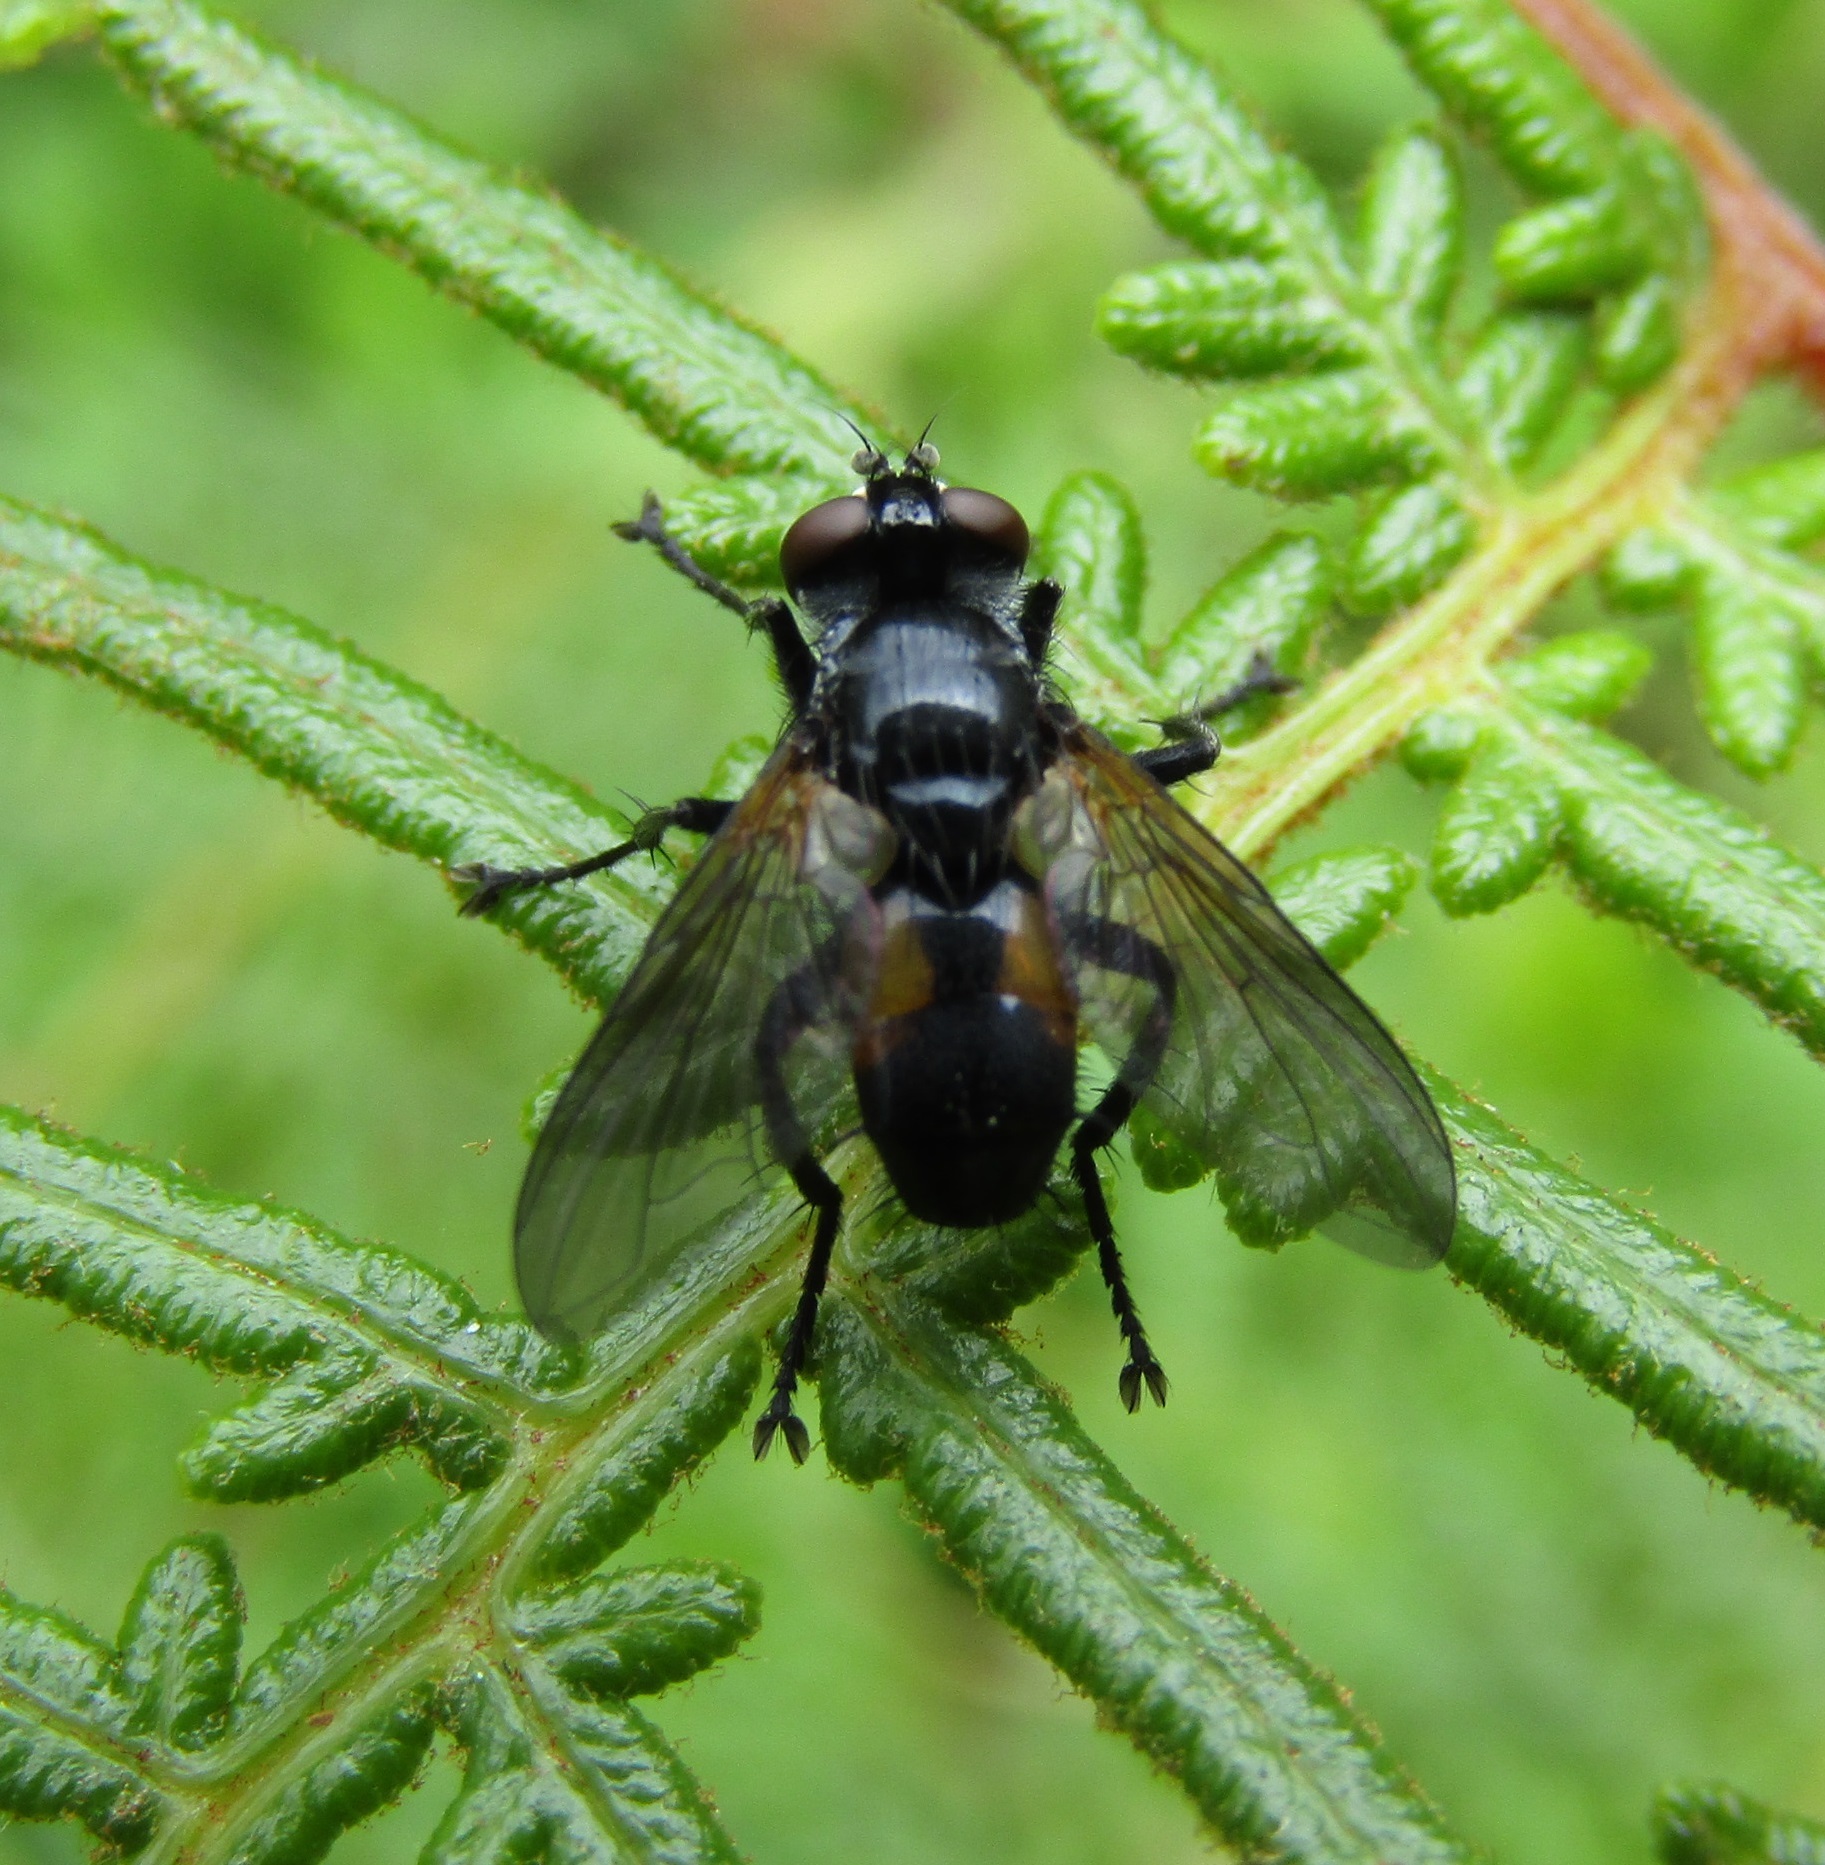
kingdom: Animalia
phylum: Arthropoda
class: Insecta
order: Diptera
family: Tachinidae
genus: Hemyda
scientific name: Hemyda
